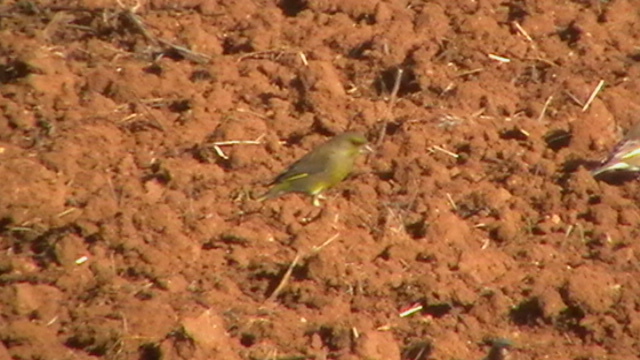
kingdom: Plantae
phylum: Tracheophyta
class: Liliopsida
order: Poales
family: Poaceae
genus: Chloris
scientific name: Chloris chloris
